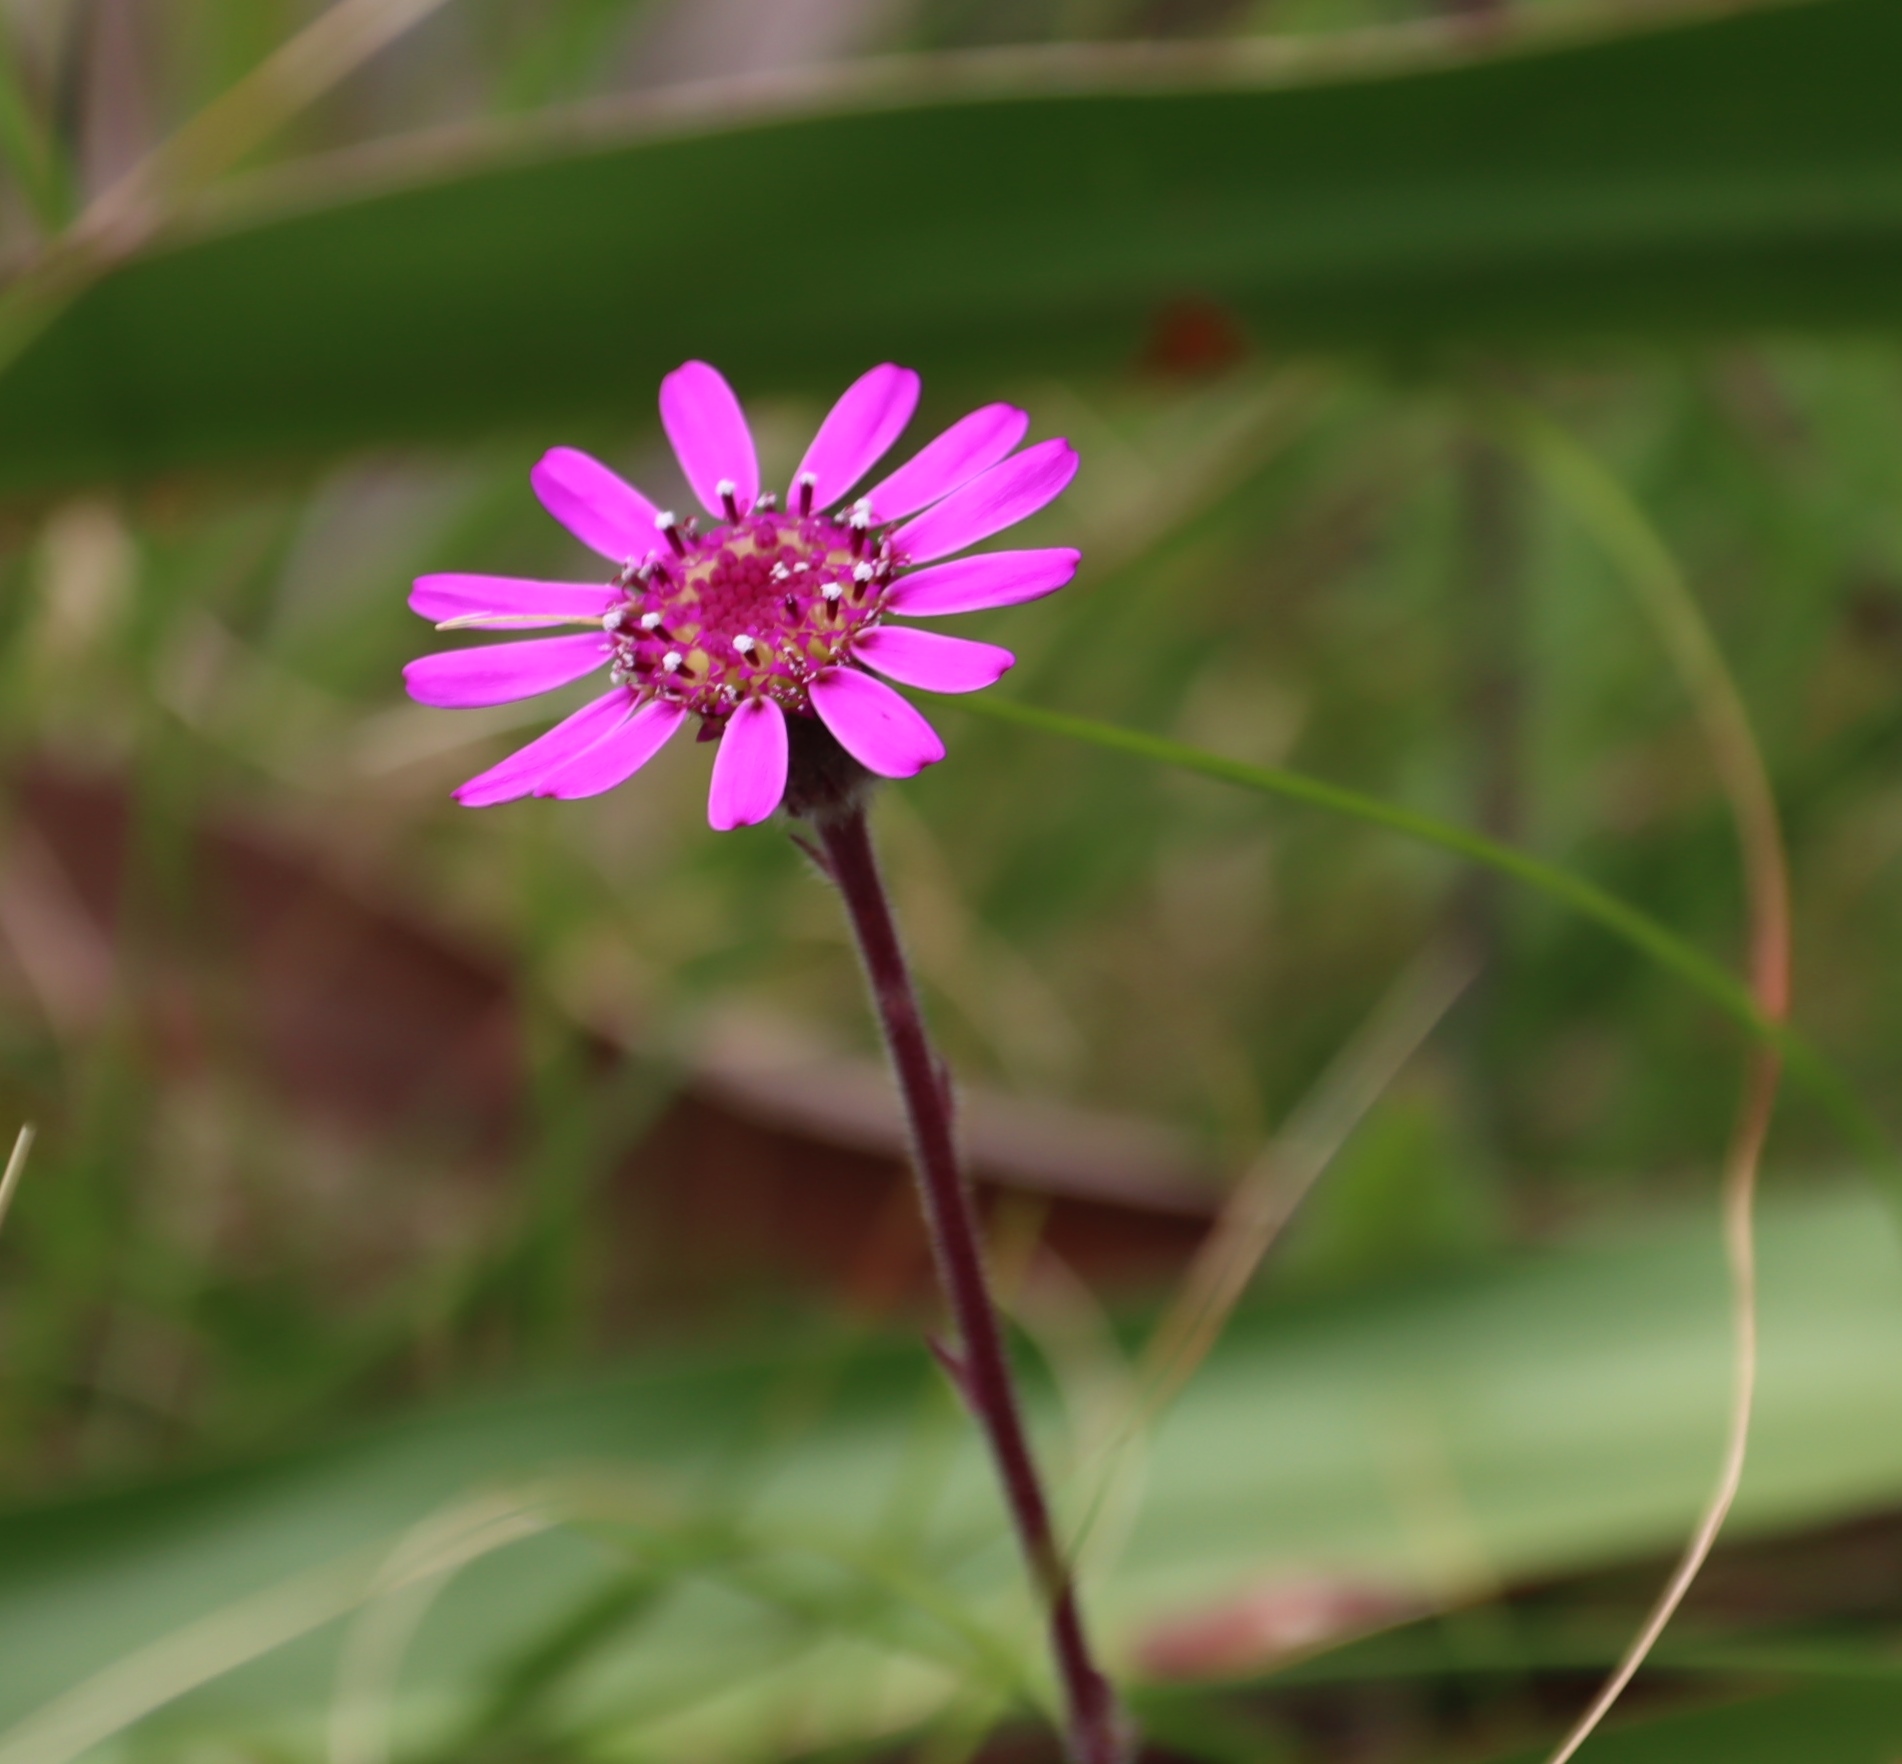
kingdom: Plantae
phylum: Tracheophyta
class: Magnoliopsida
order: Asterales
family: Asteraceae
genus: Senecio
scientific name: Senecio speciosus
